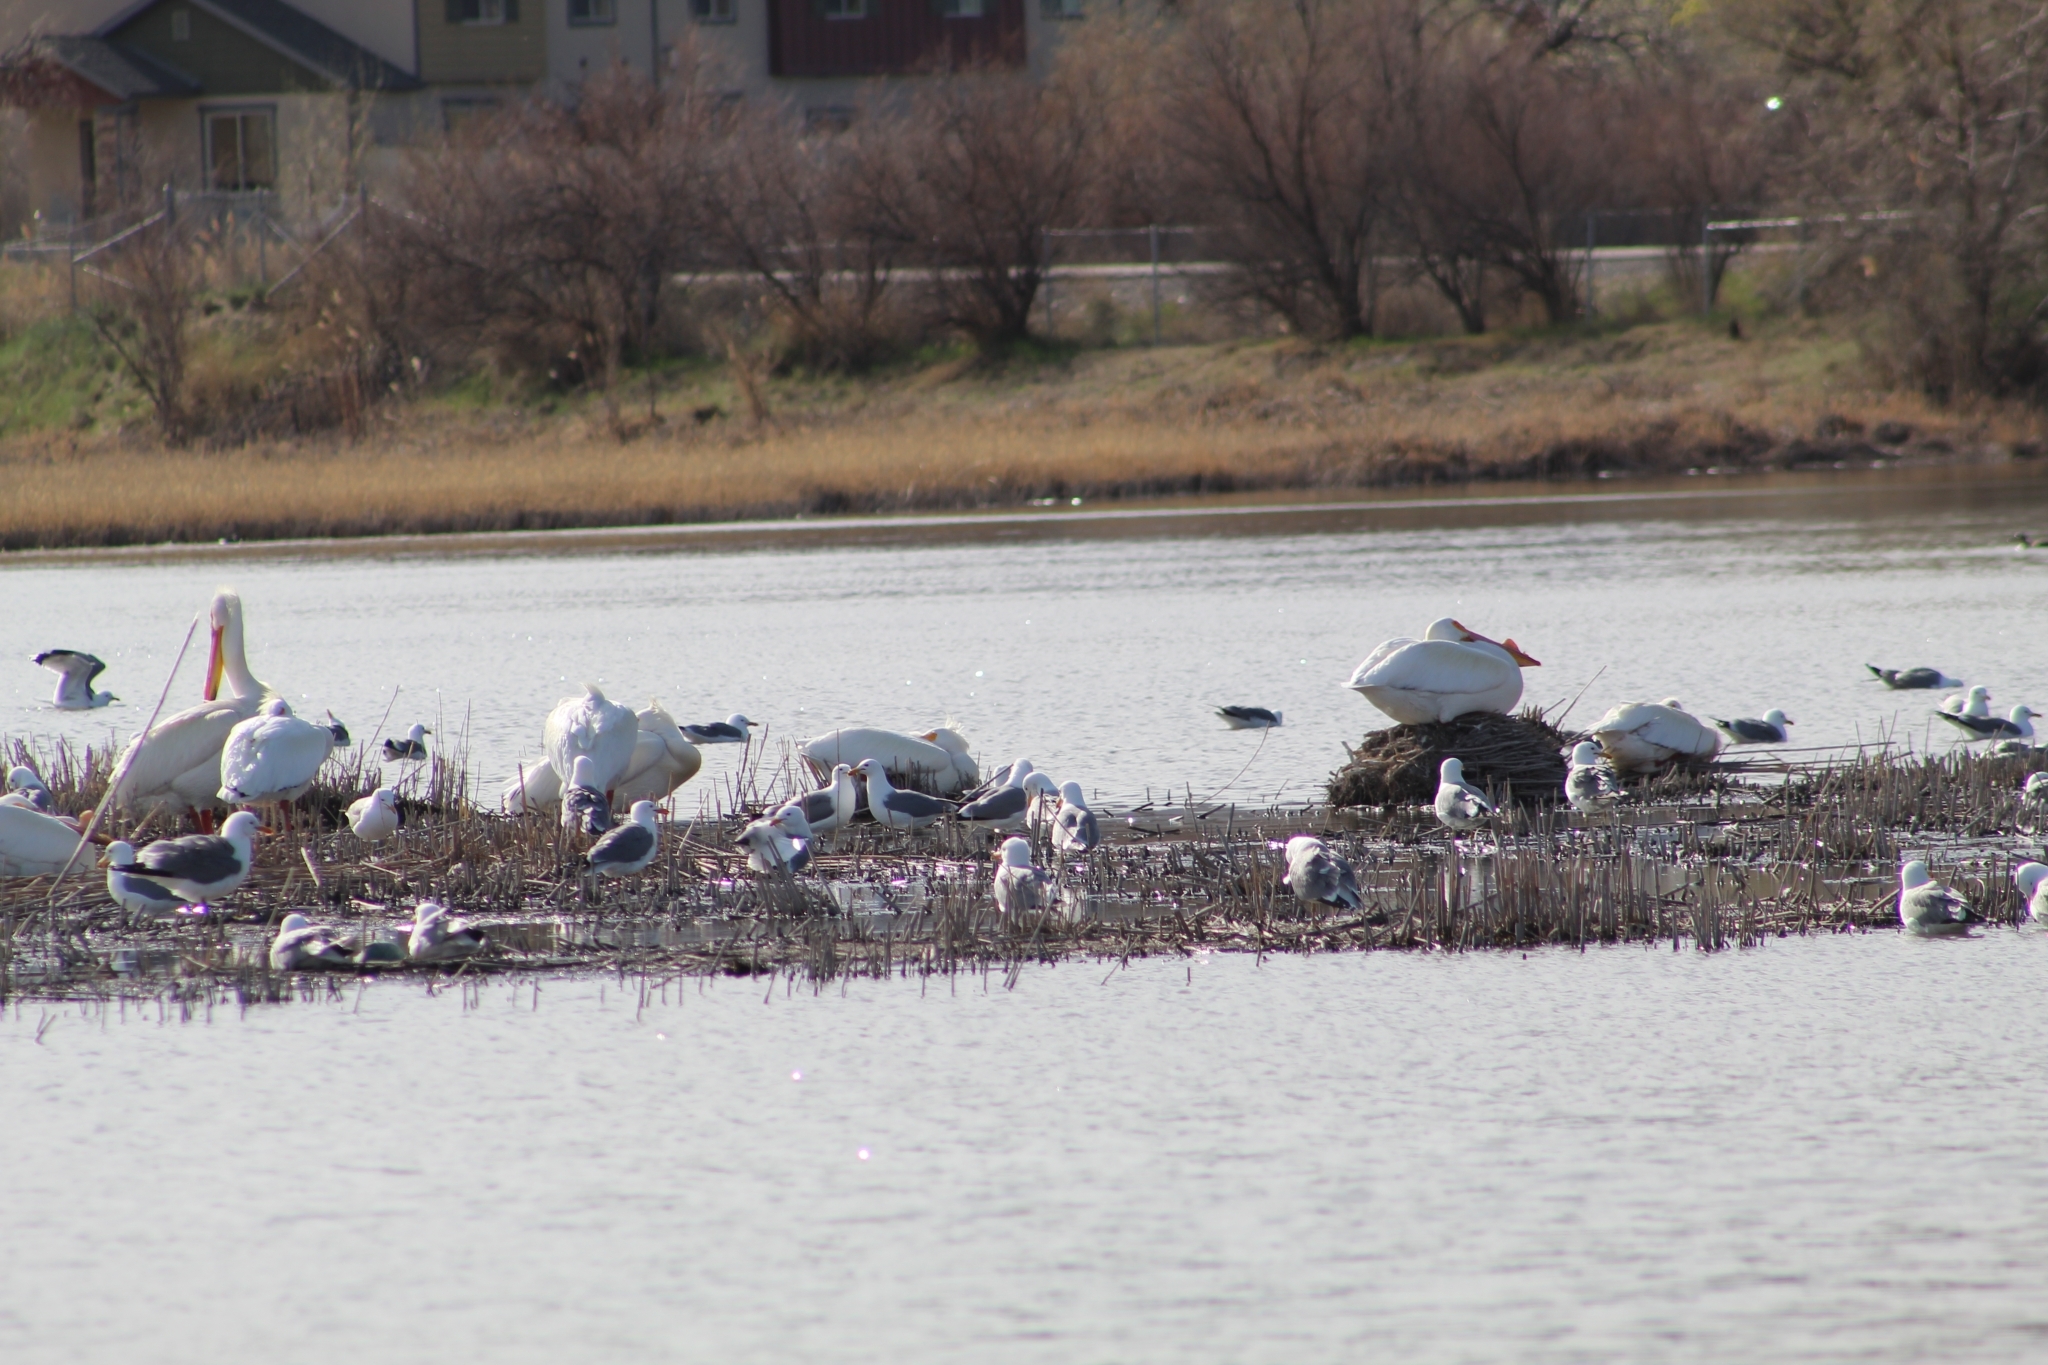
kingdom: Animalia
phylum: Chordata
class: Aves
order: Pelecaniformes
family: Pelecanidae
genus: Pelecanus
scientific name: Pelecanus erythrorhynchos
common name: American white pelican
